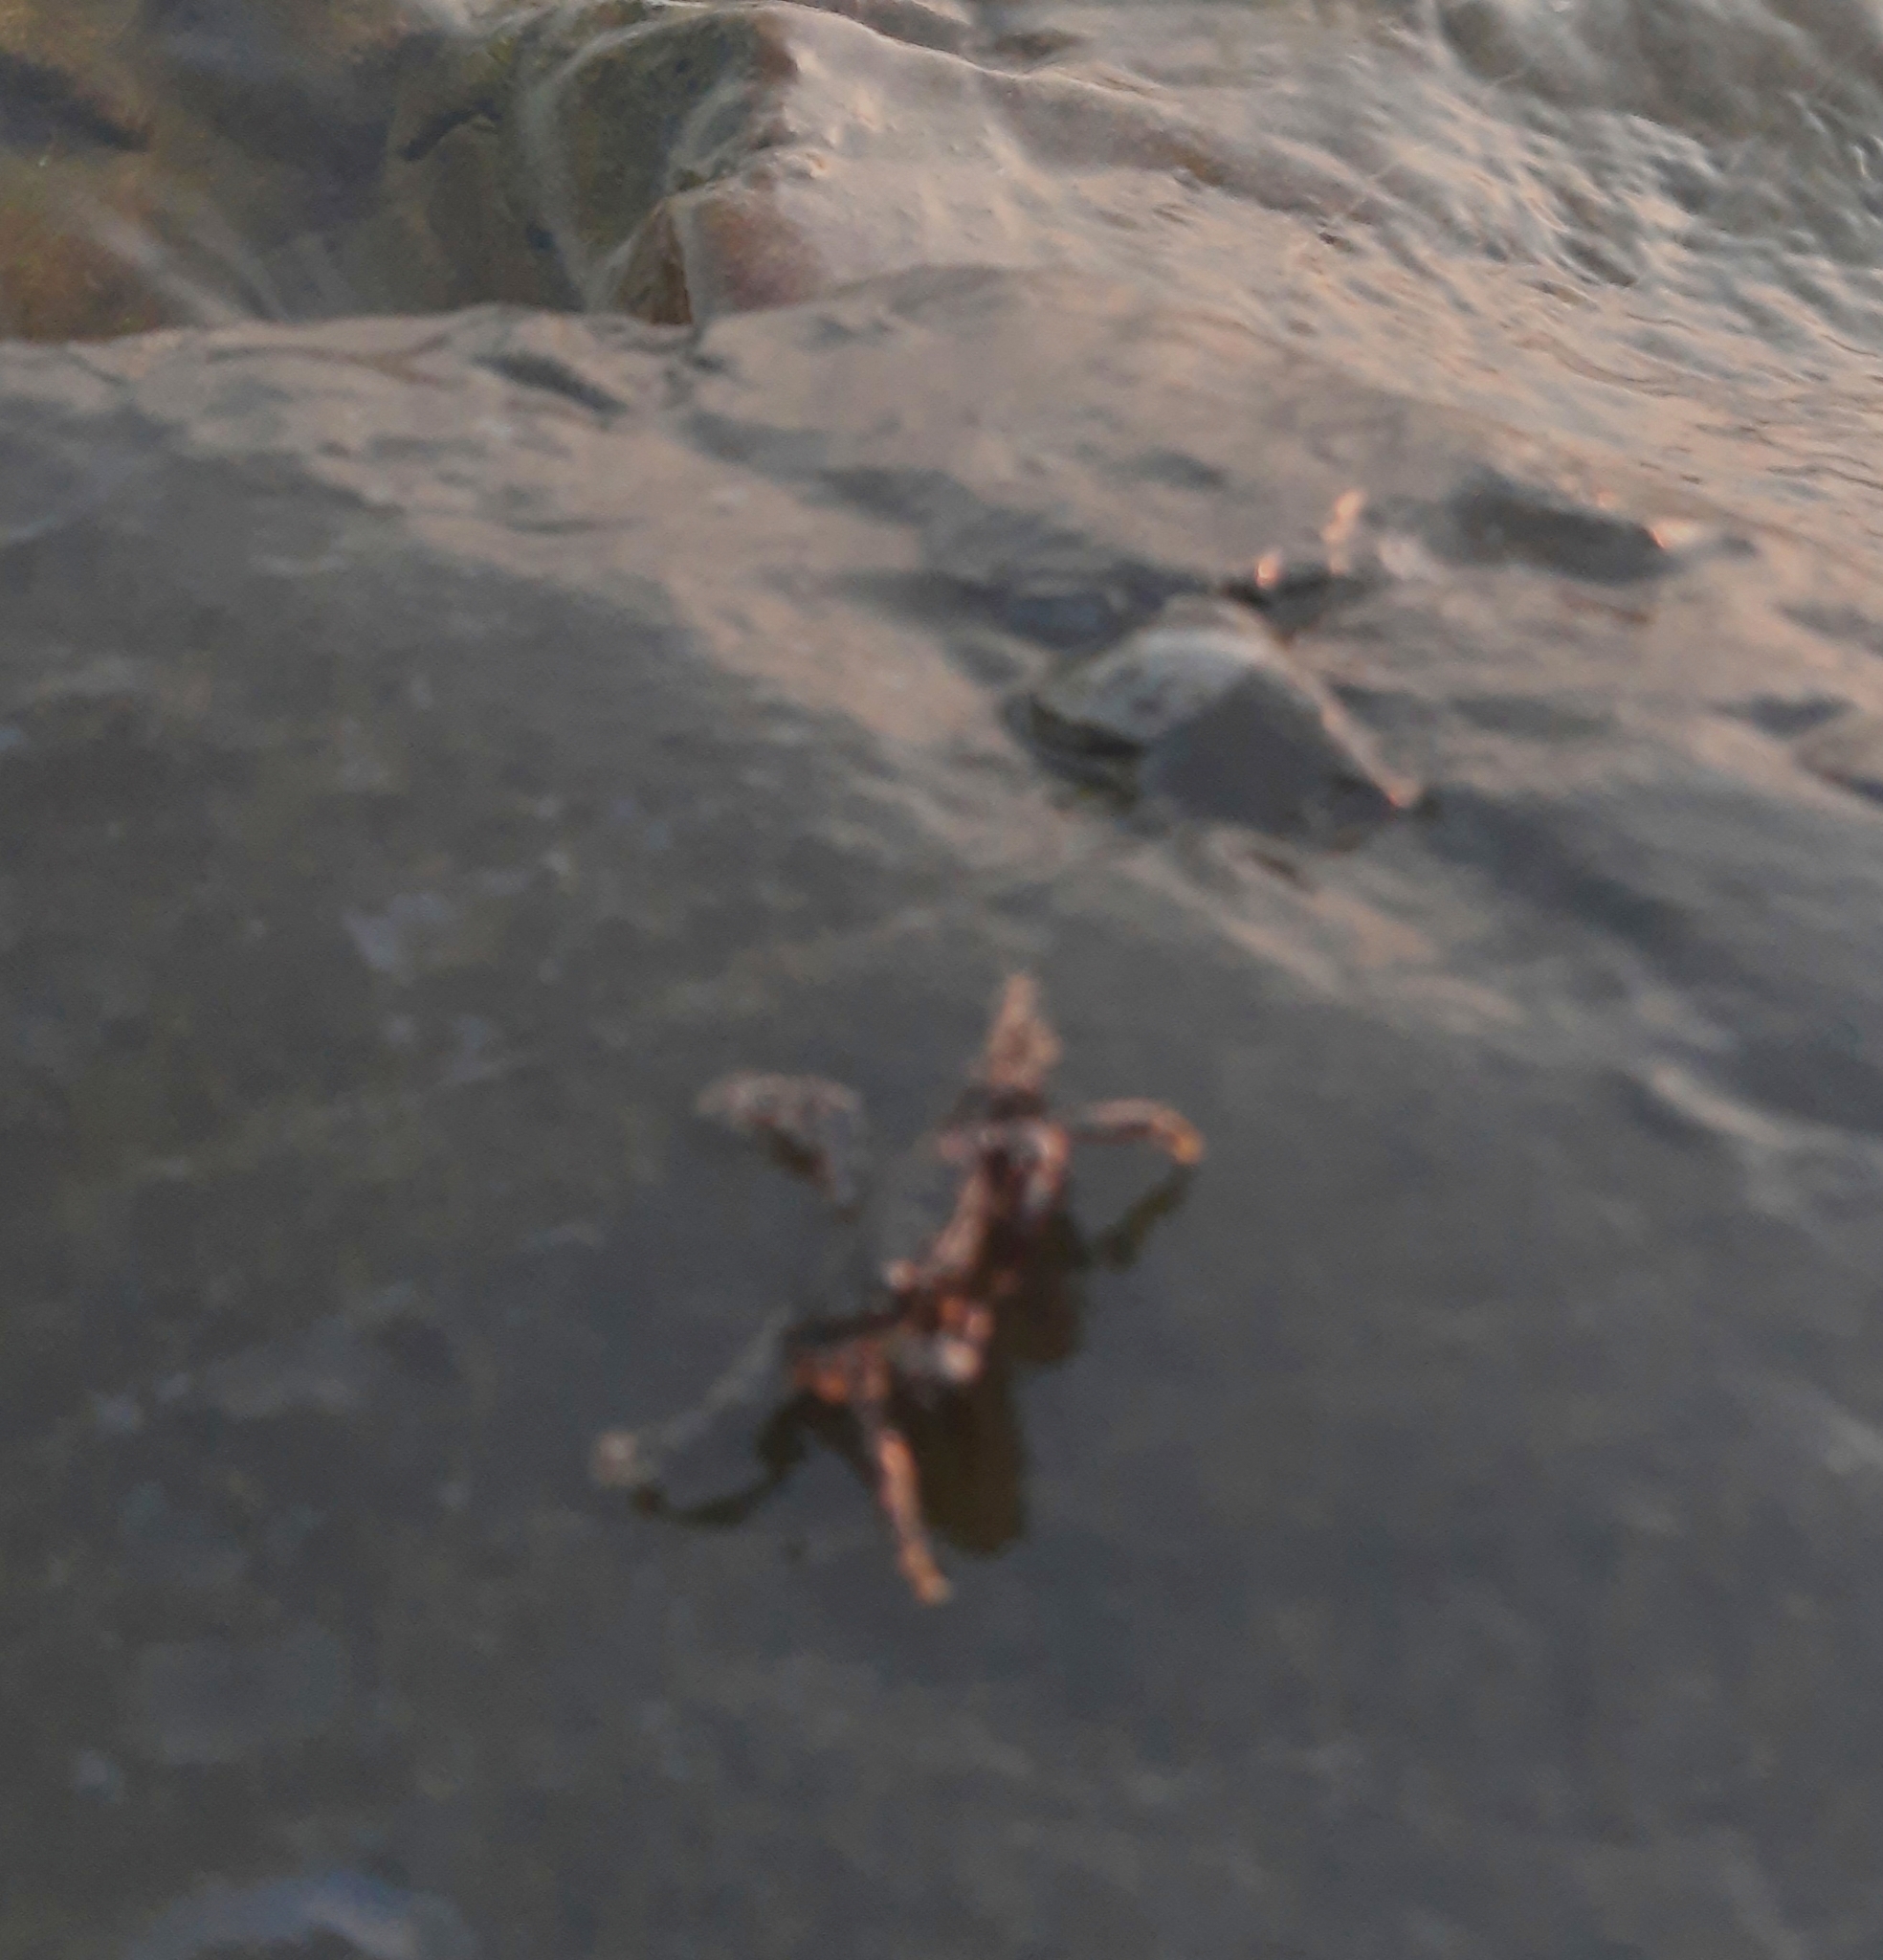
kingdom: Animalia
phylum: Arthropoda
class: Malacostraca
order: Decapoda
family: Grapsidae
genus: Pachygrapsus
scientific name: Pachygrapsus marmoratus
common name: Marbled rock crab
